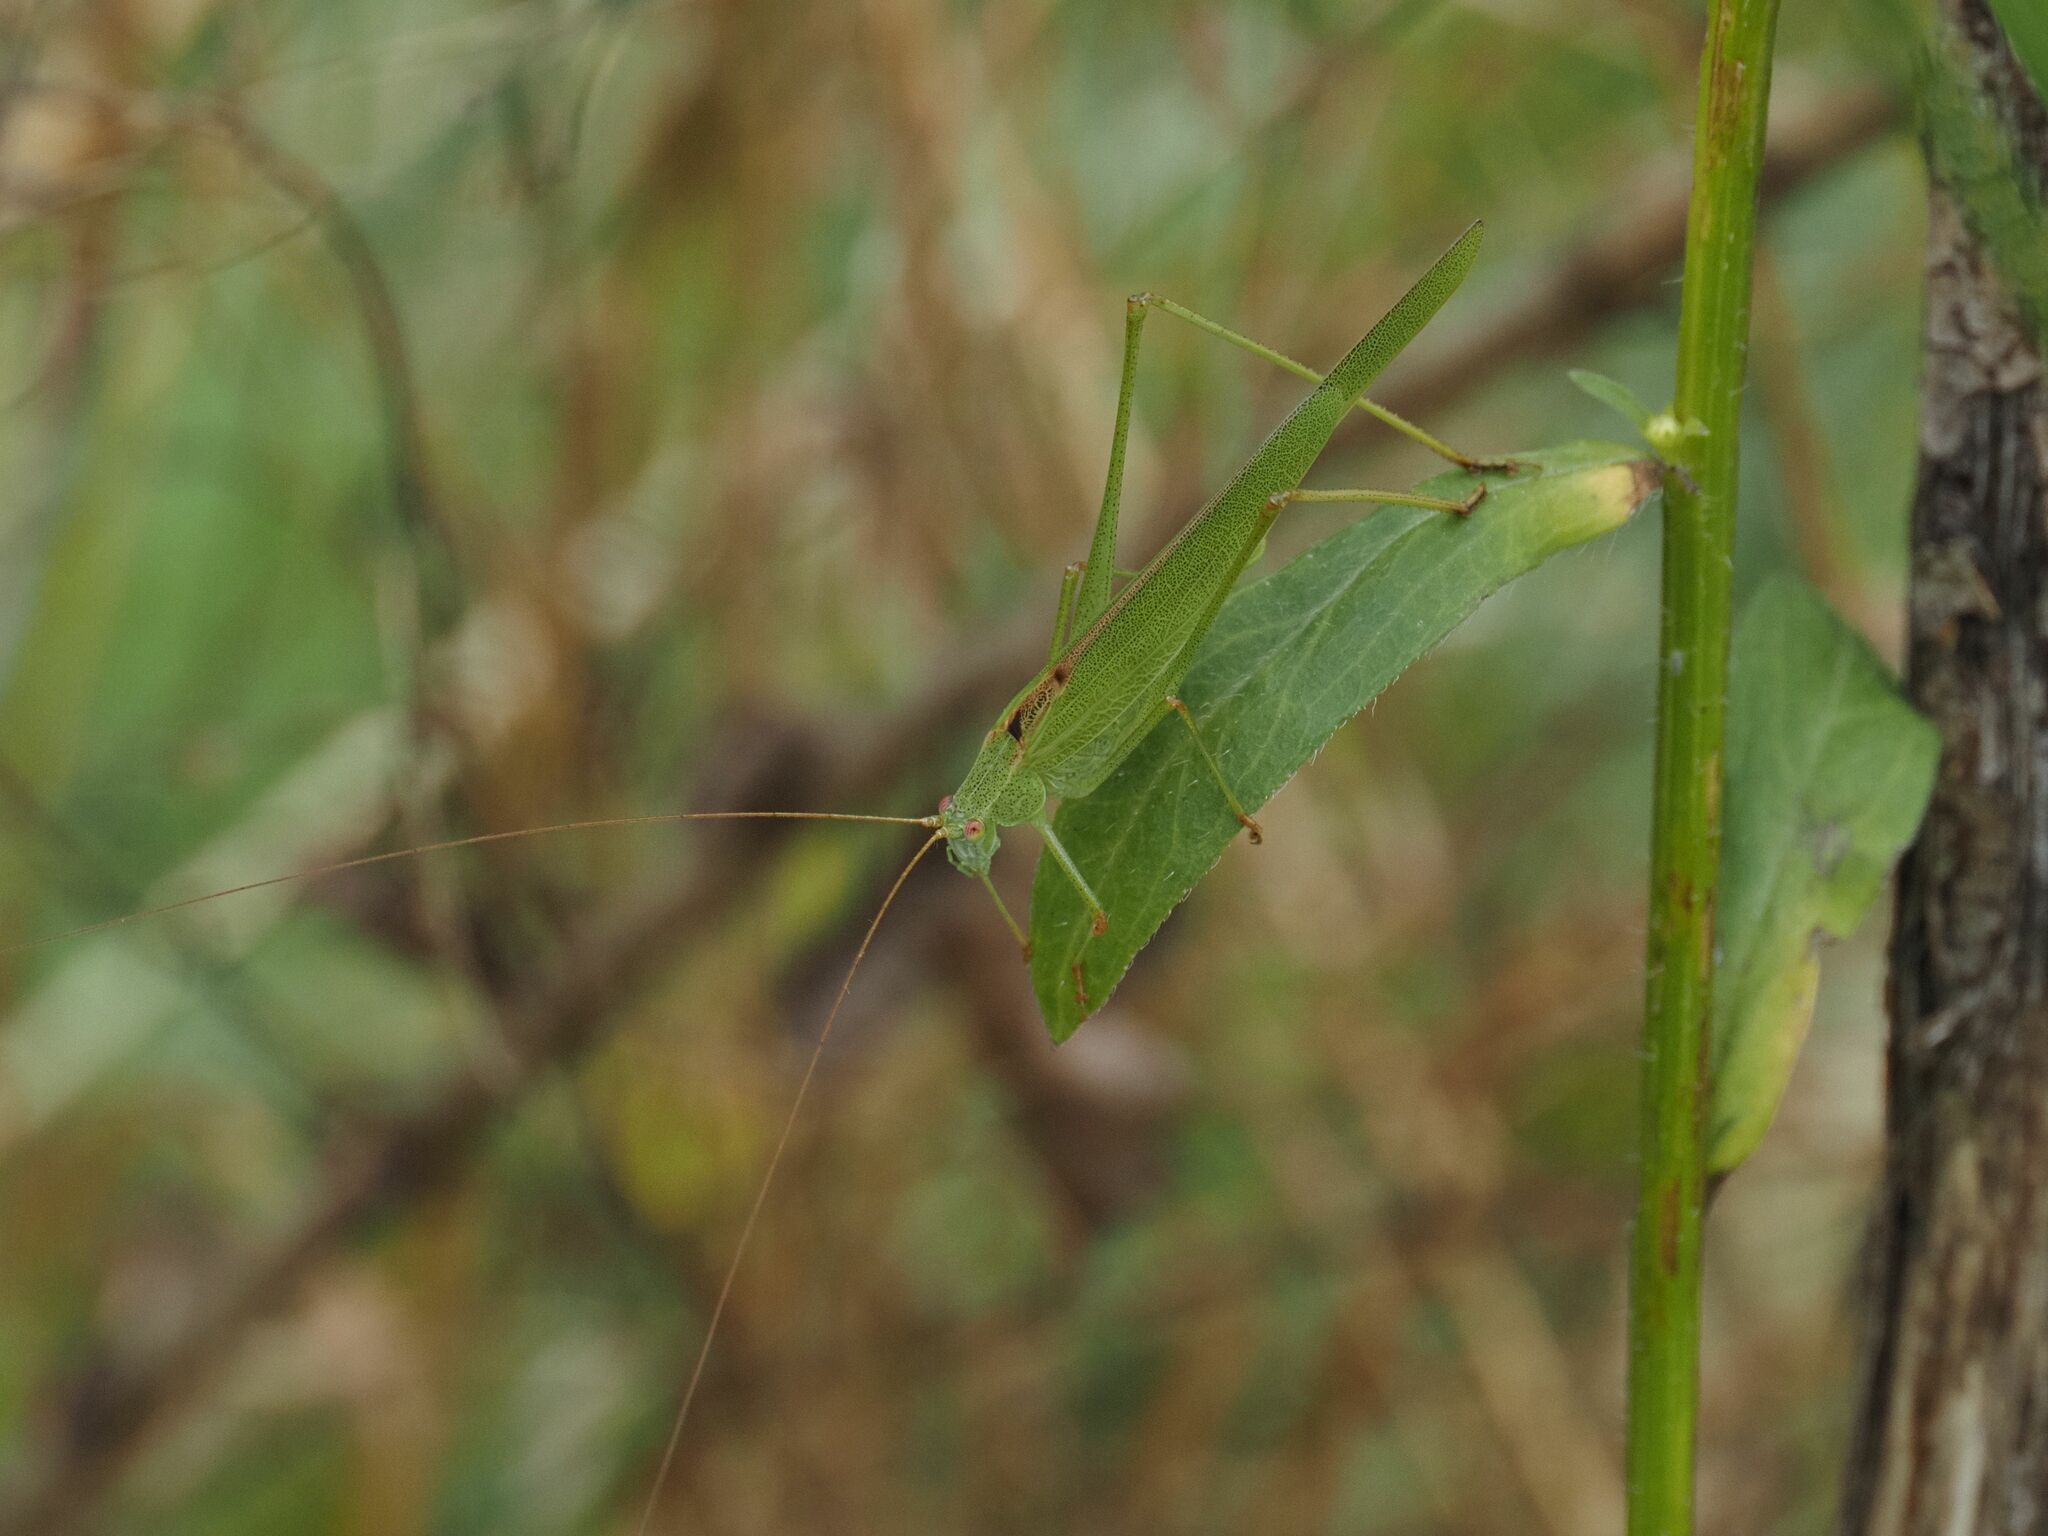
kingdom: Animalia
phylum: Arthropoda
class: Insecta
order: Orthoptera
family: Tettigoniidae
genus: Phaneroptera
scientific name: Phaneroptera falcata
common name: Sickle-bearing bush-cricket
